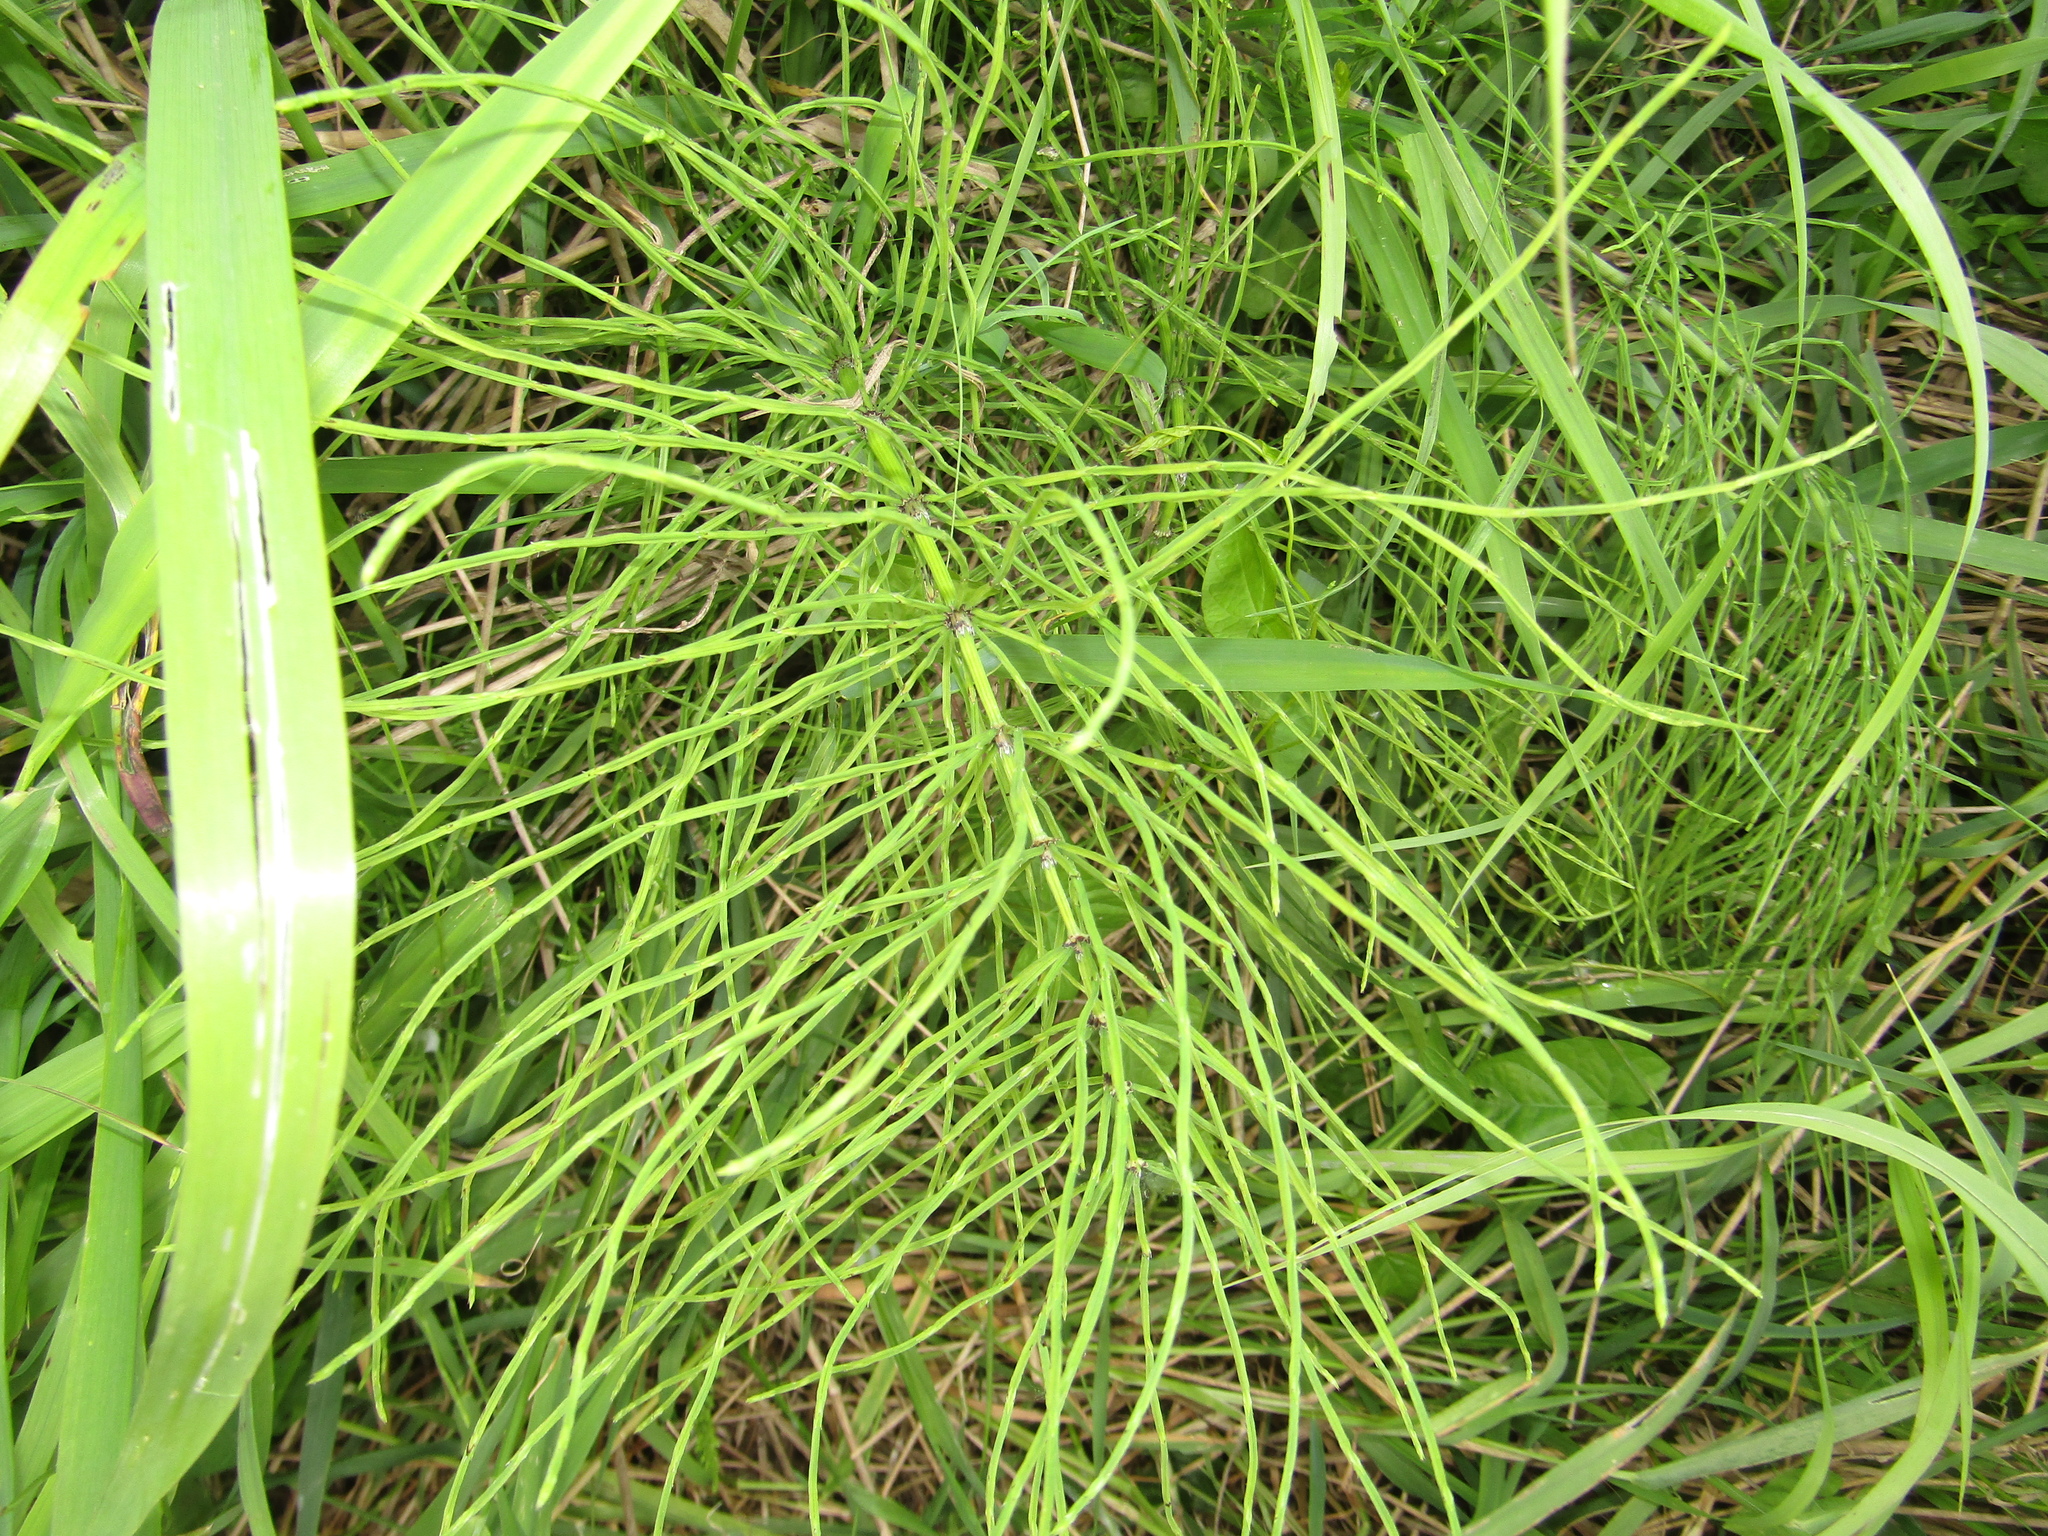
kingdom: Plantae
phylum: Tracheophyta
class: Polypodiopsida
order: Equisetales
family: Equisetaceae
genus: Equisetum
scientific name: Equisetum pratense
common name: Meadow horsetail
